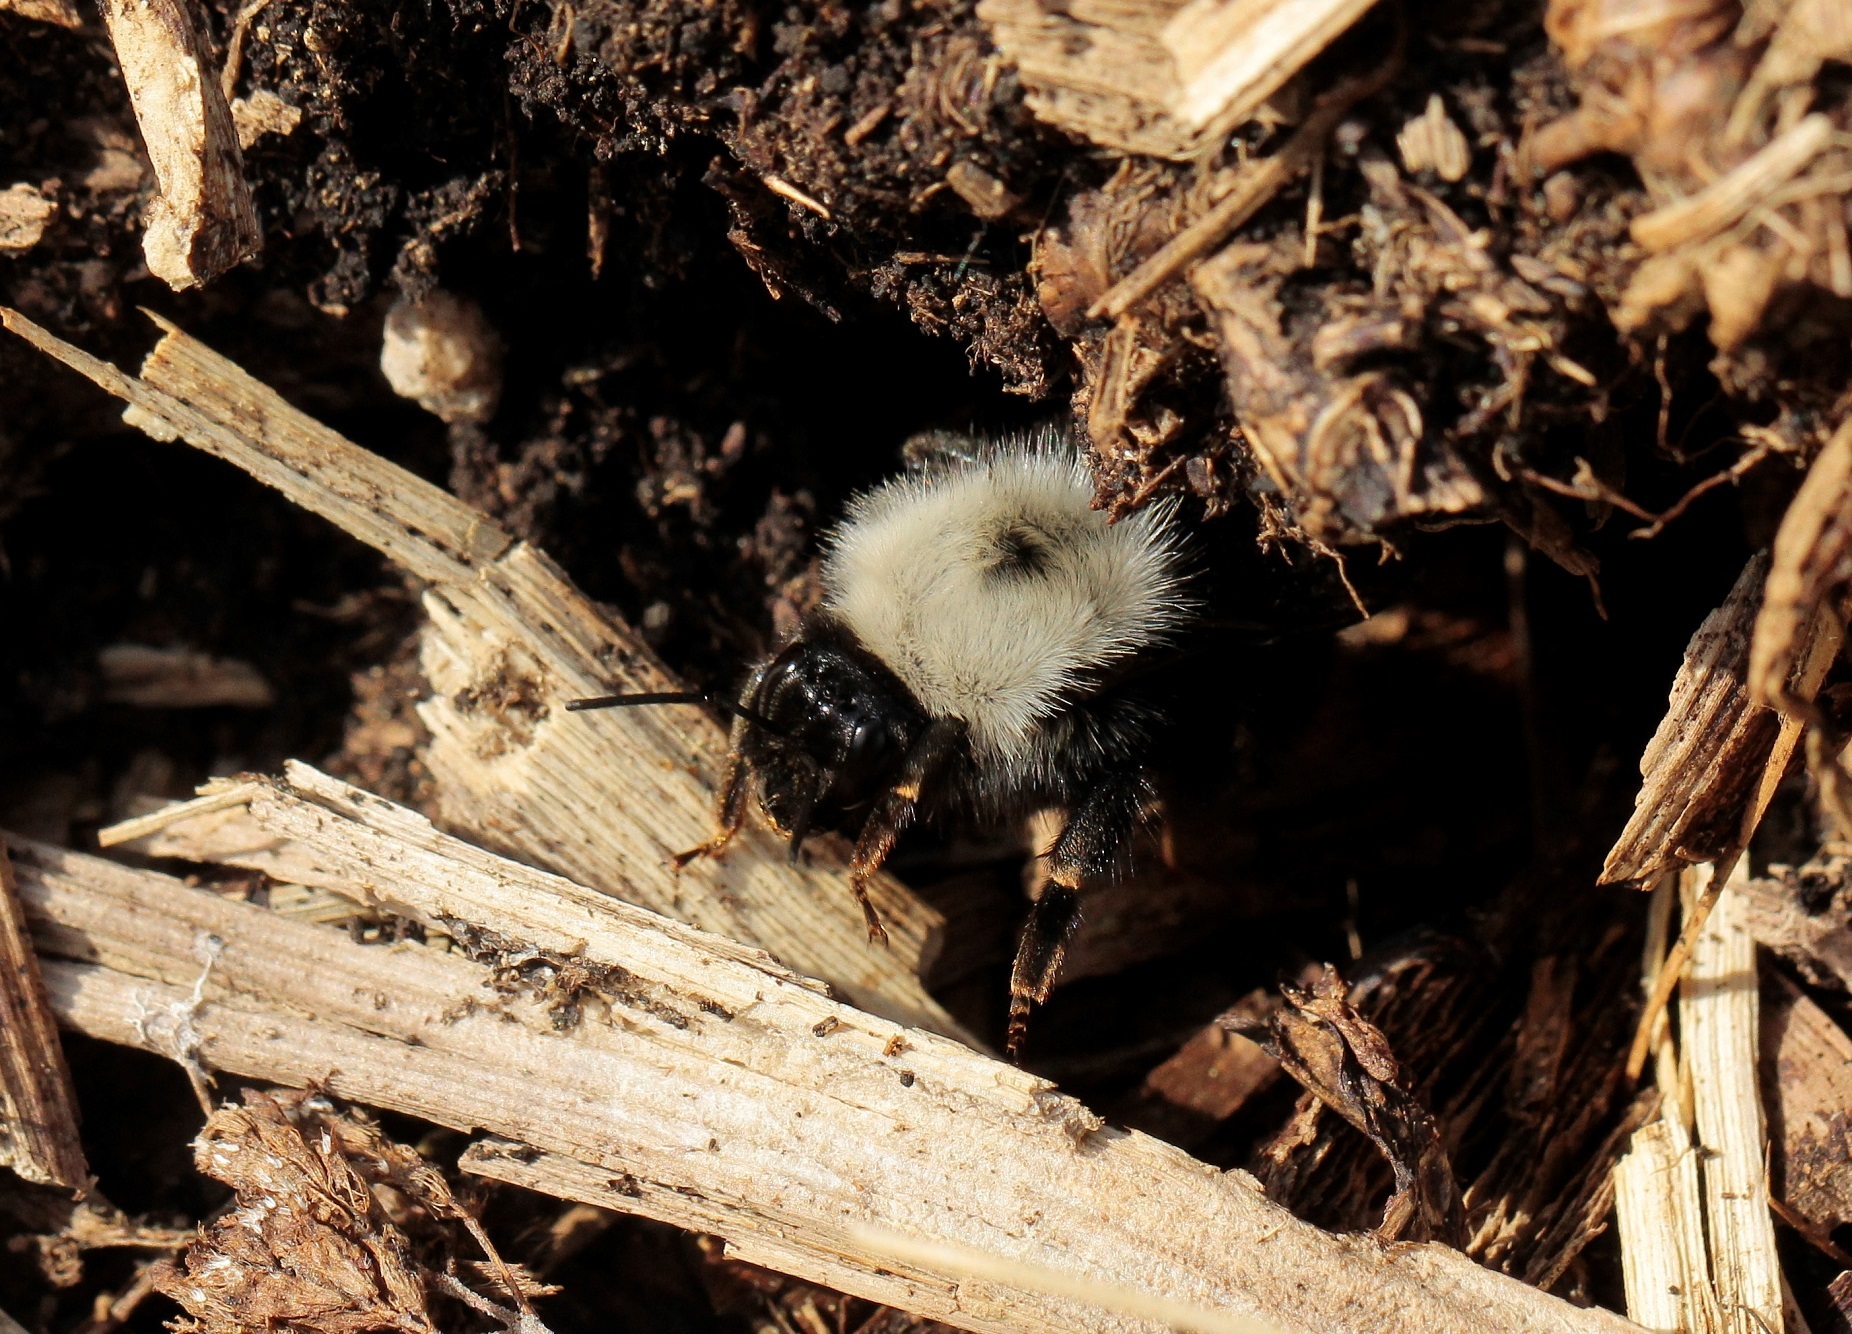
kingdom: Animalia
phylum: Arthropoda
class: Insecta
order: Hymenoptera
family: Apidae
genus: Bombus
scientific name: Bombus mlokosievitzii
